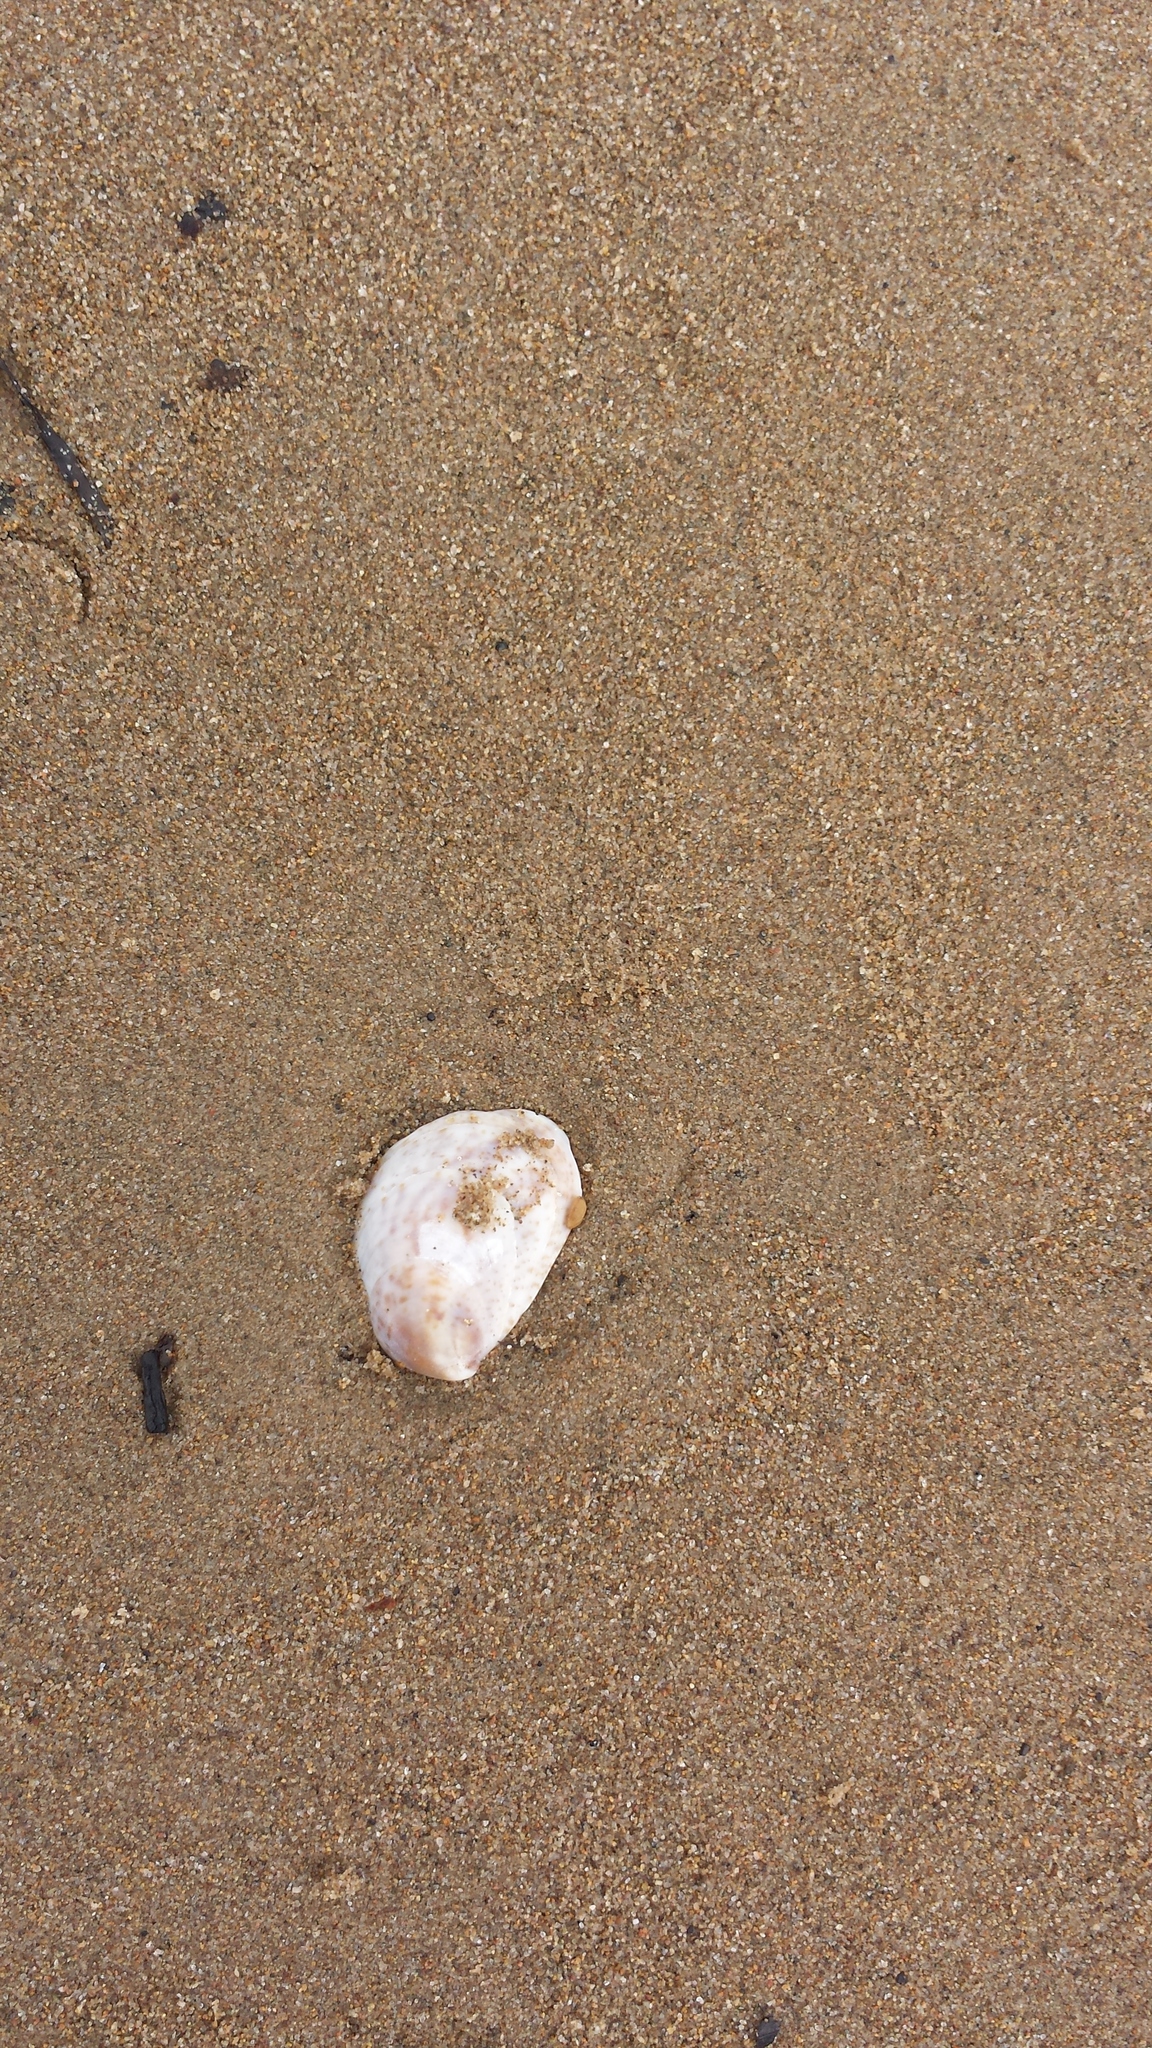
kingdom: Animalia
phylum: Mollusca
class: Gastropoda
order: Littorinimorpha
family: Calyptraeidae
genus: Crepidula
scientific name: Crepidula fornicata
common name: Slipper limpet
